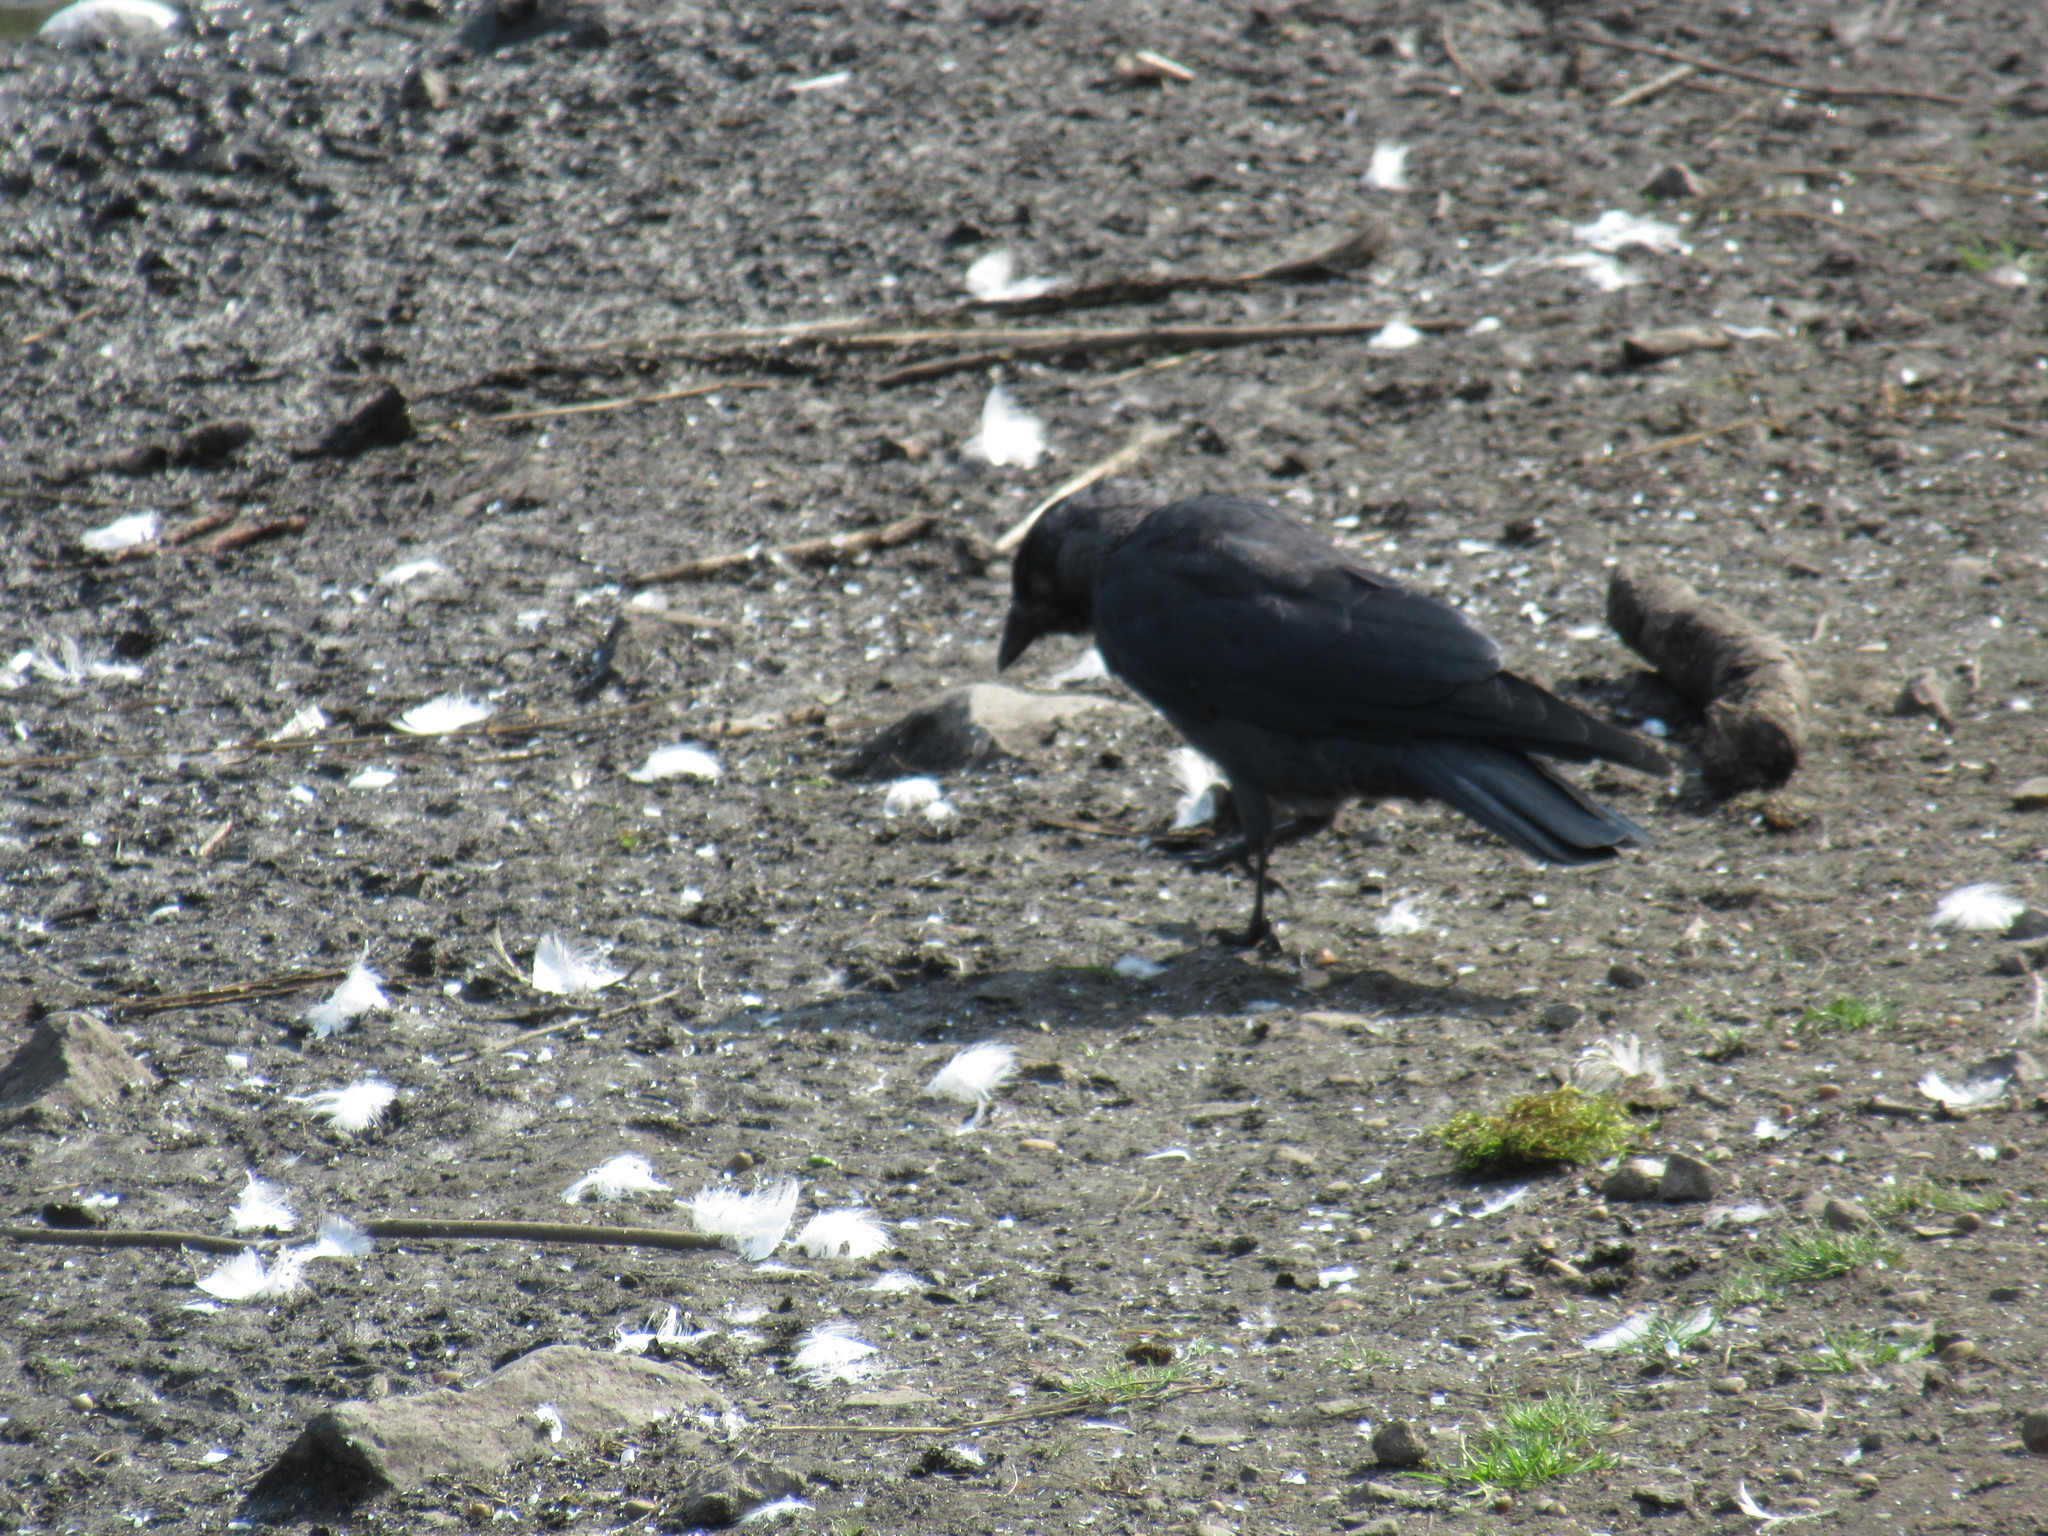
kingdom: Animalia
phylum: Chordata
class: Aves
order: Passeriformes
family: Corvidae
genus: Coloeus
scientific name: Coloeus monedula
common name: Western jackdaw
